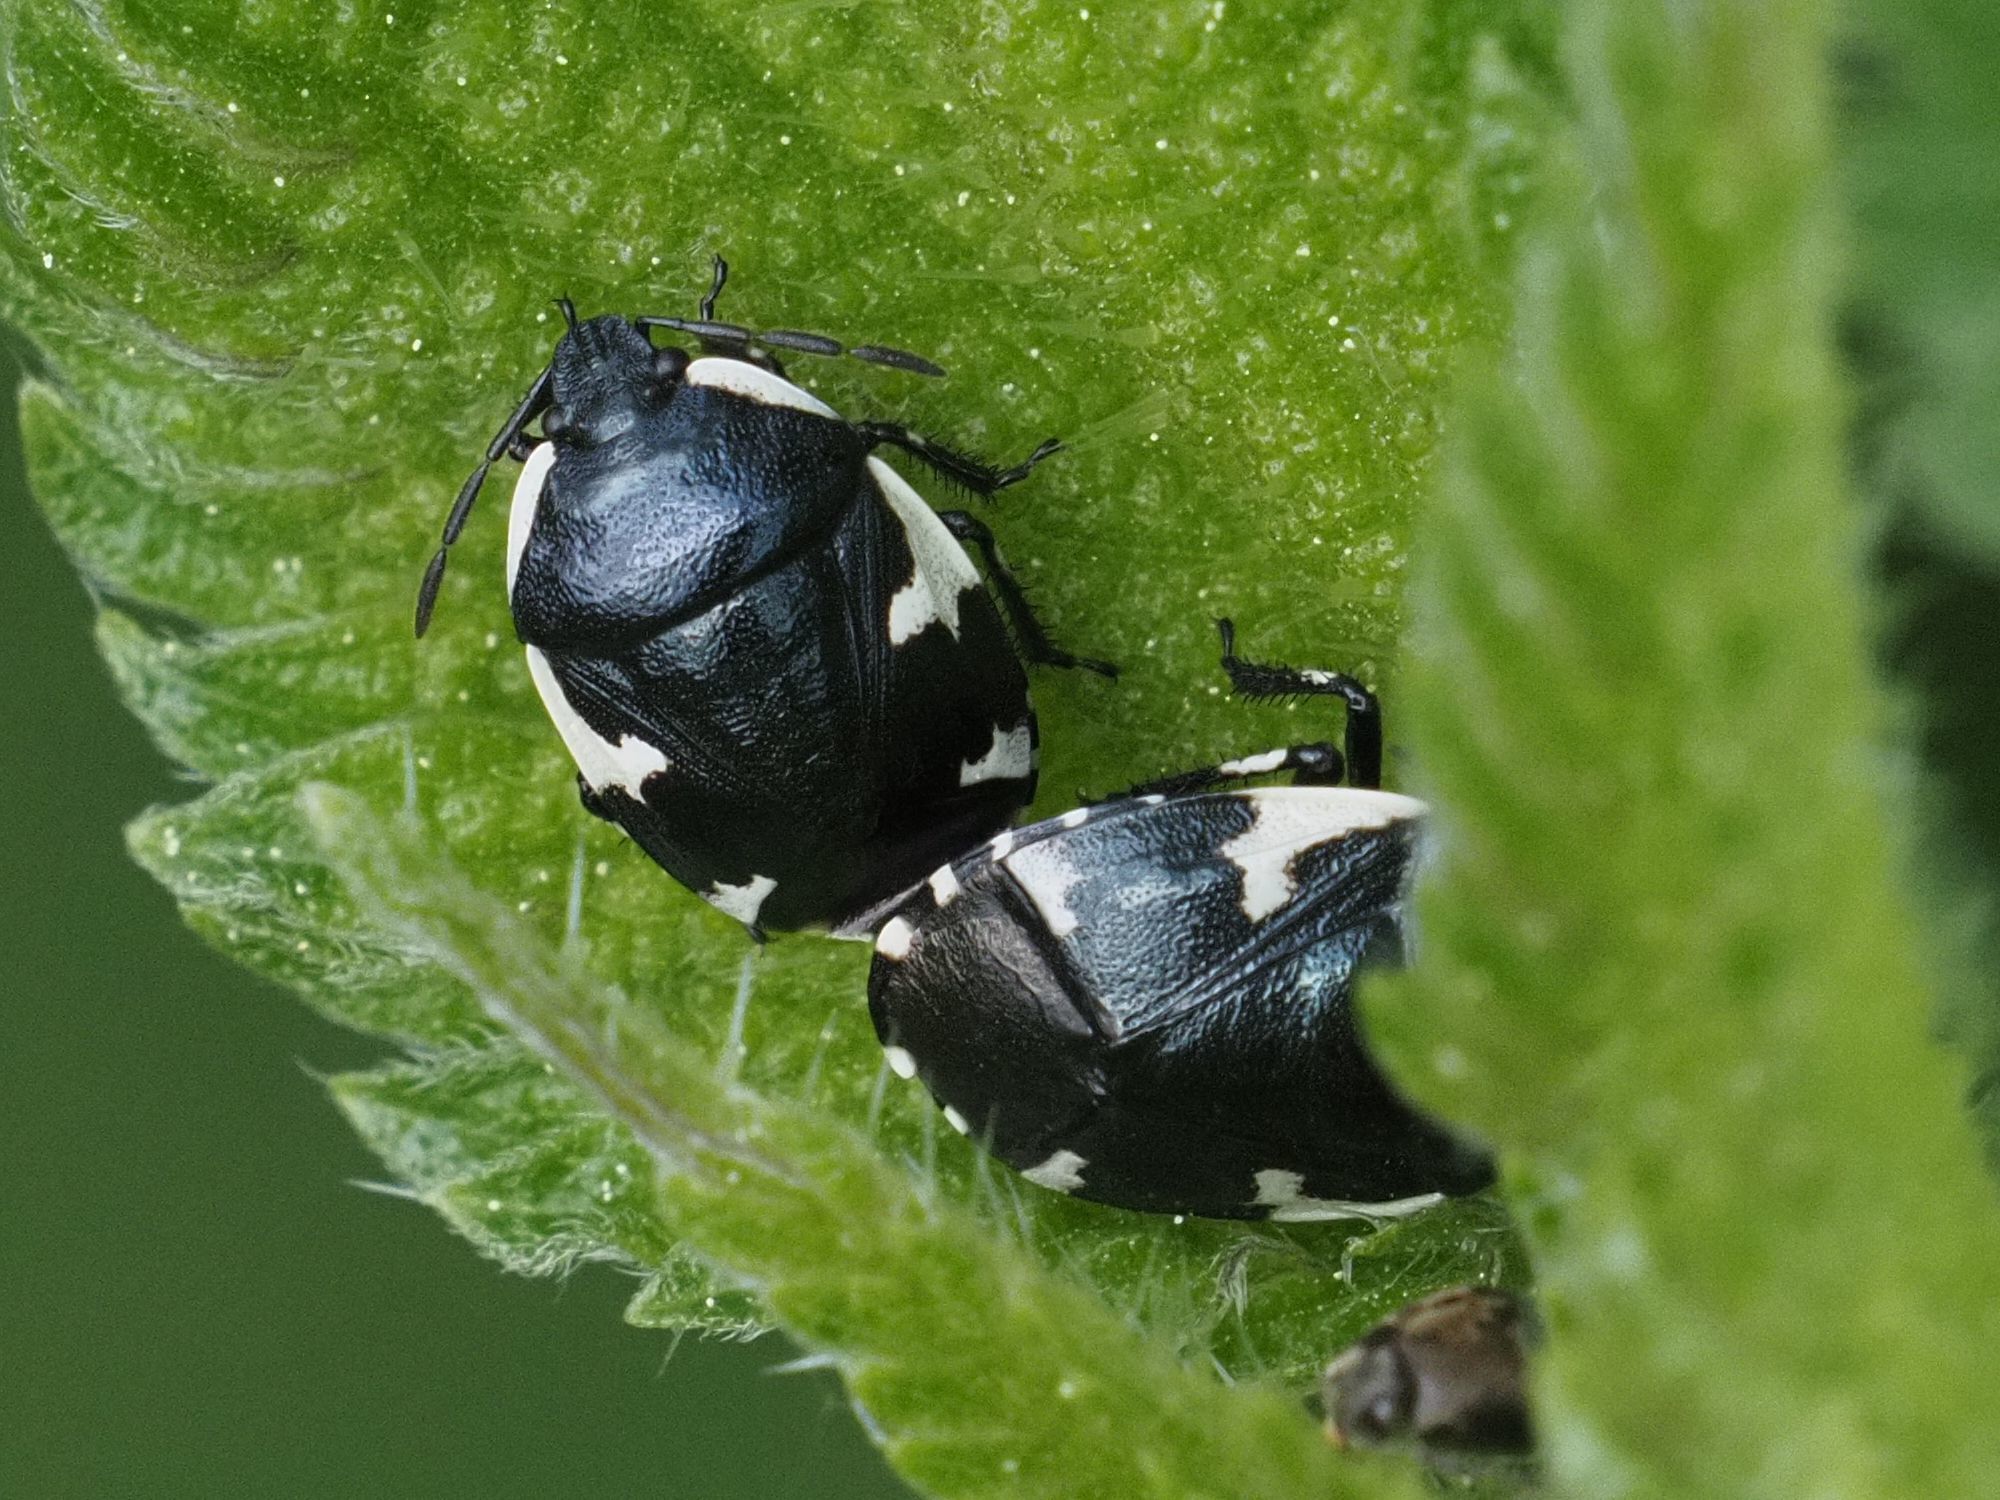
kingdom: Animalia
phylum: Arthropoda
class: Insecta
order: Hemiptera
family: Cydnidae
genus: Tritomegas
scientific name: Tritomegas sexmaculatus
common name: Rambur's pied shieldbug
